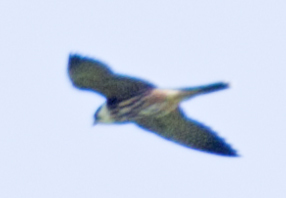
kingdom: Animalia
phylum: Chordata
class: Aves
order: Falconiformes
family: Falconidae
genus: Falco
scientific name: Falco subbuteo
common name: Eurasian hobby
